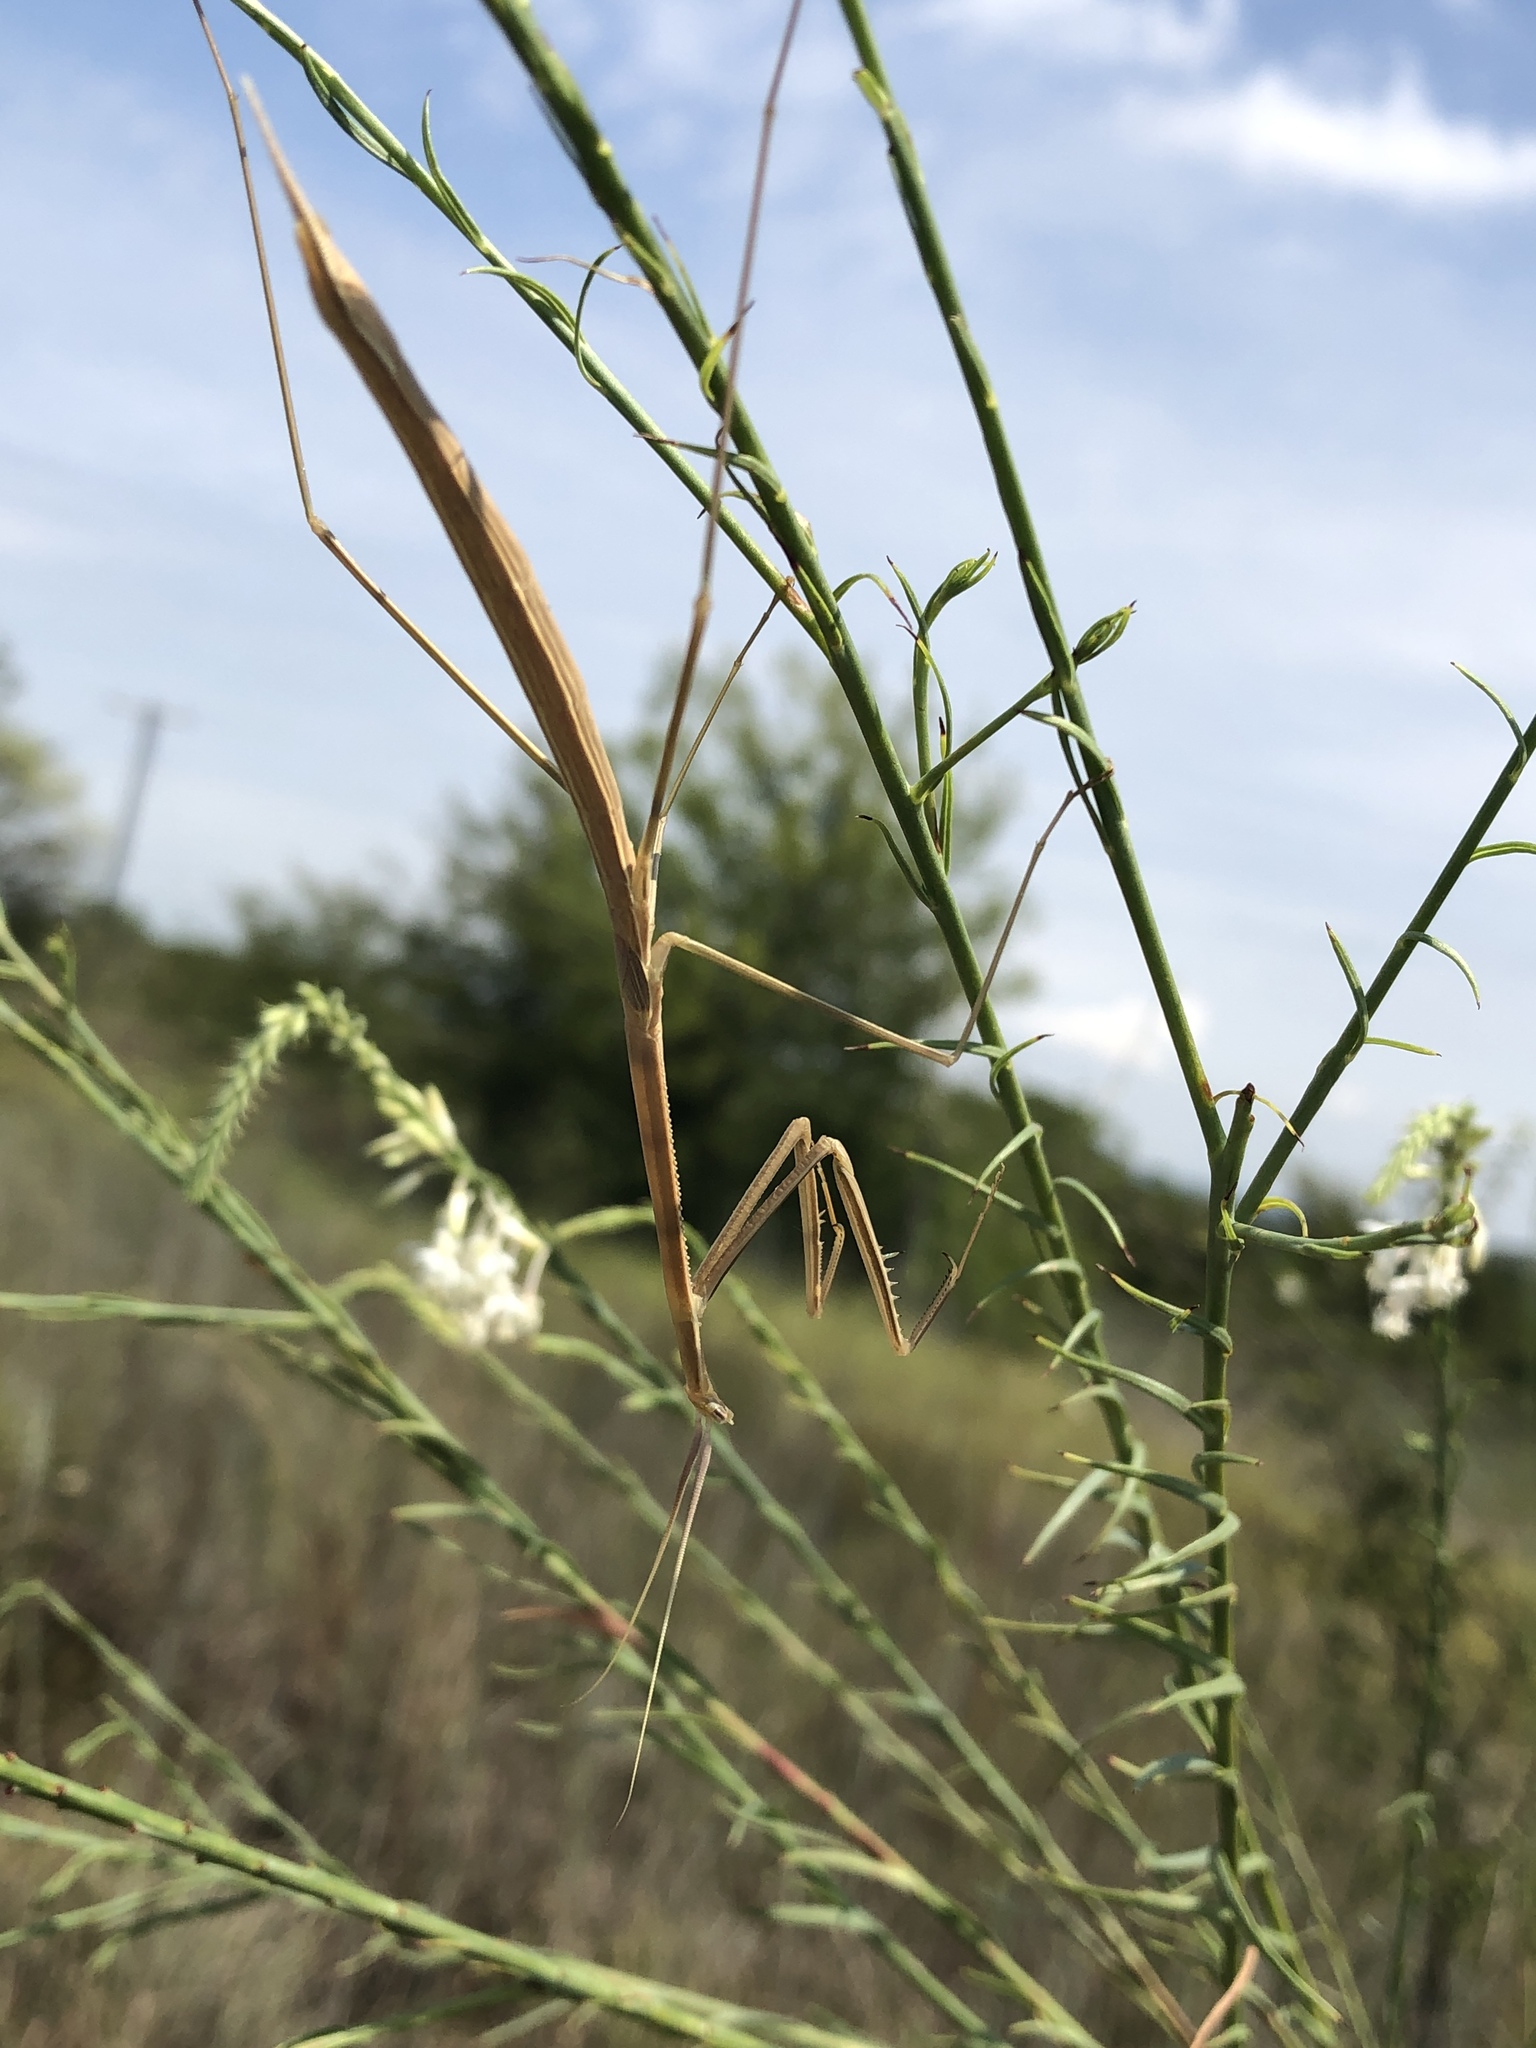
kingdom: Animalia
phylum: Arthropoda
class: Insecta
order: Mantodea
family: Coptopterygidae
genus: Brunneria
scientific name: Brunneria borealis
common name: Mantis
